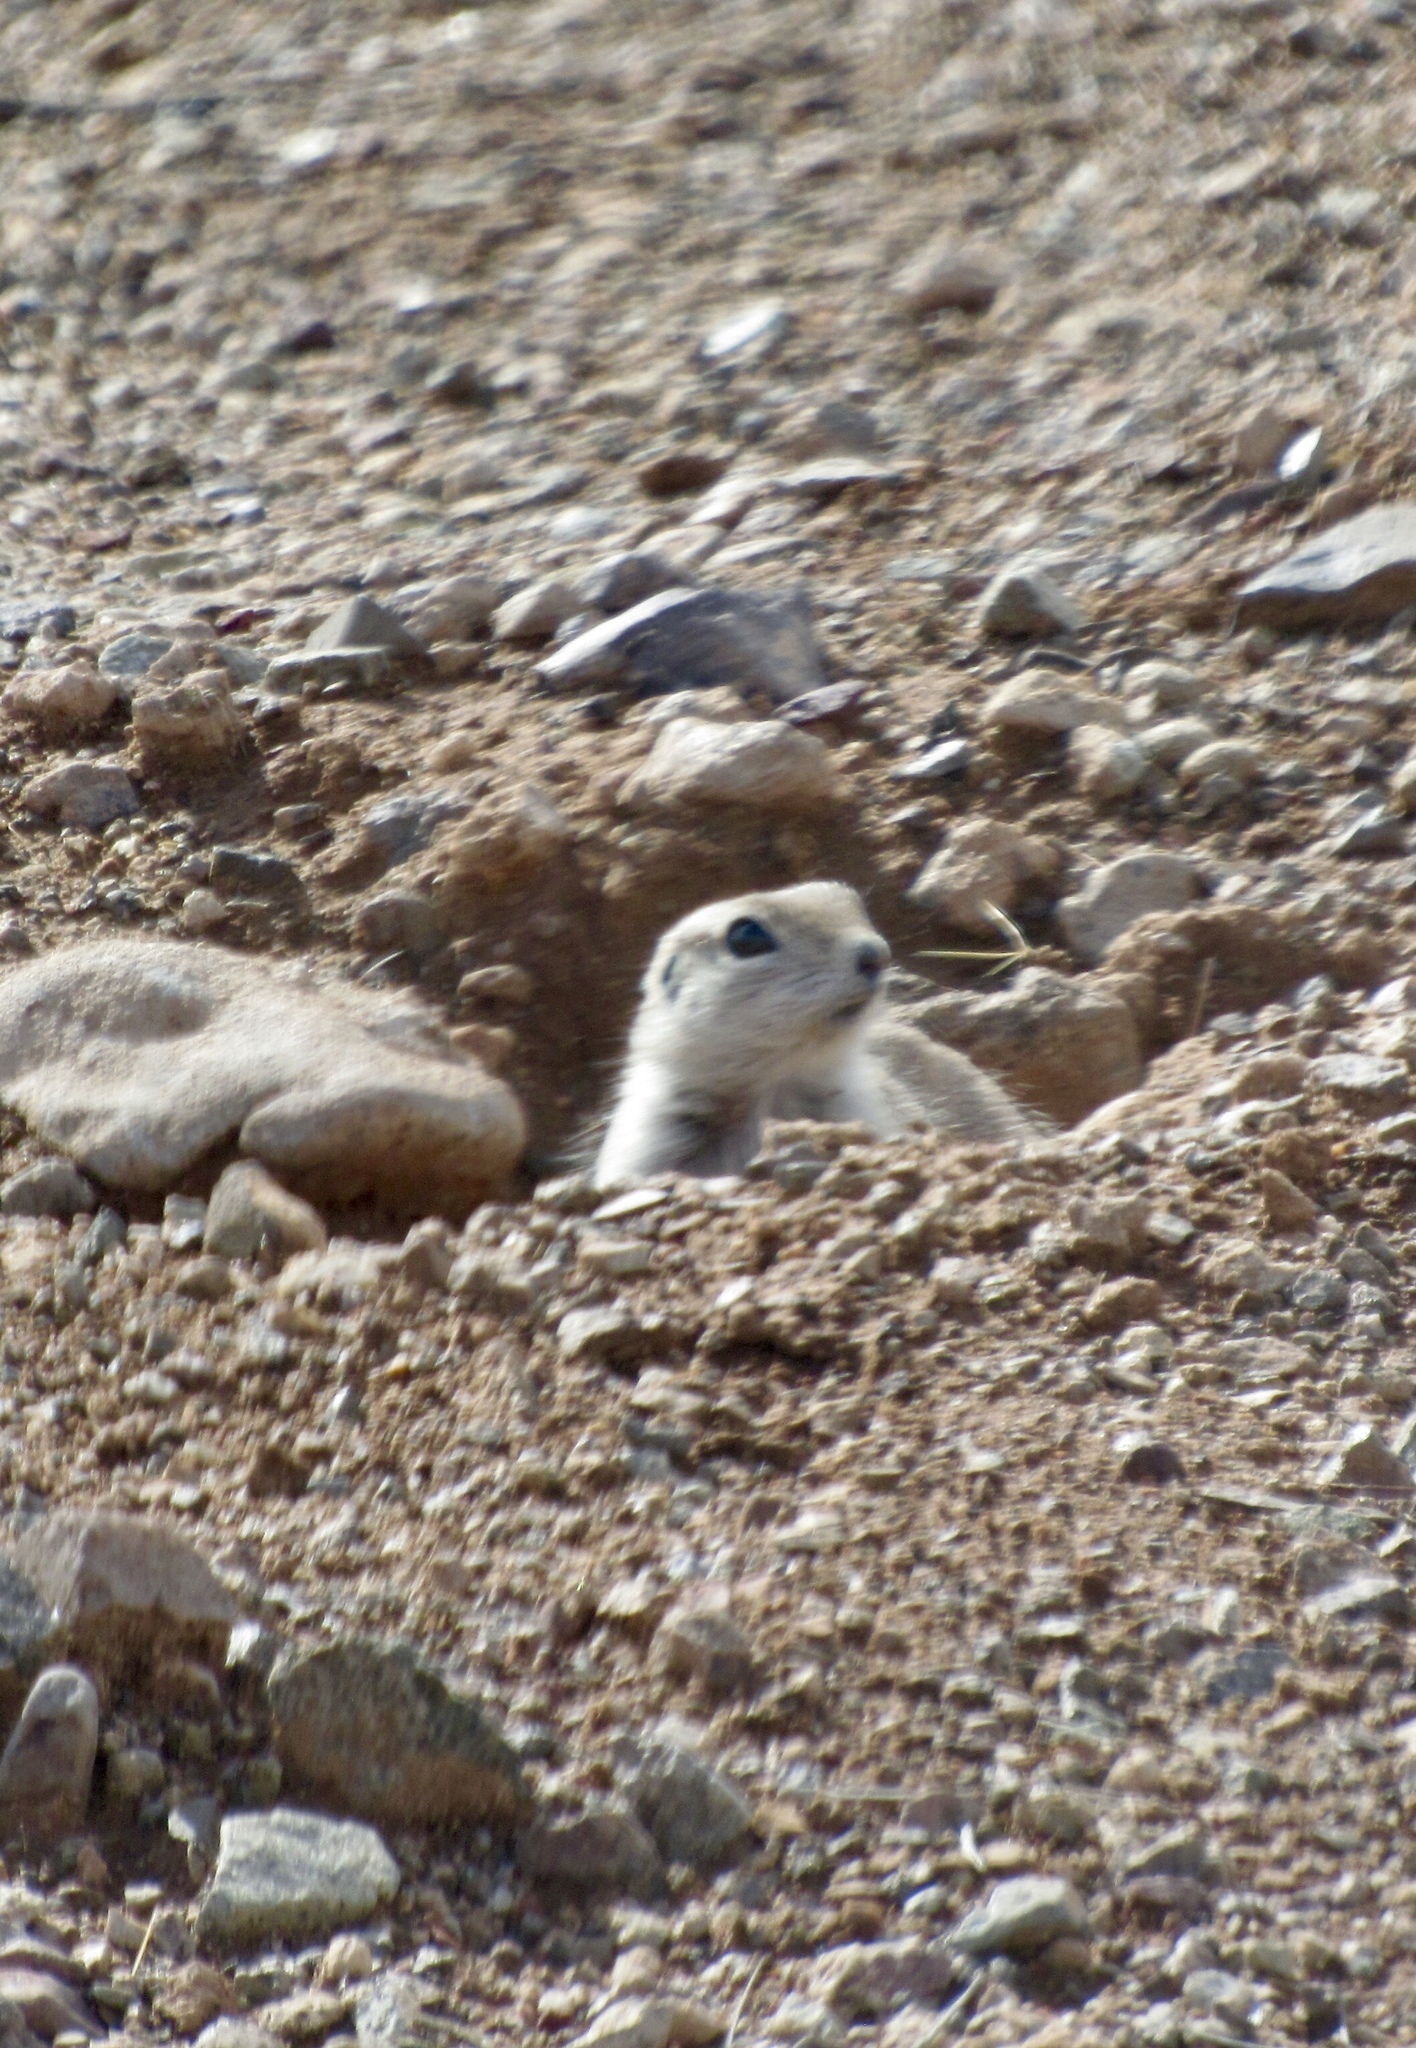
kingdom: Animalia
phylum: Chordata
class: Mammalia
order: Rodentia
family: Sciuridae
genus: Xerospermophilus
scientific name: Xerospermophilus tereticaudus
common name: Round-tailed ground squirrel
